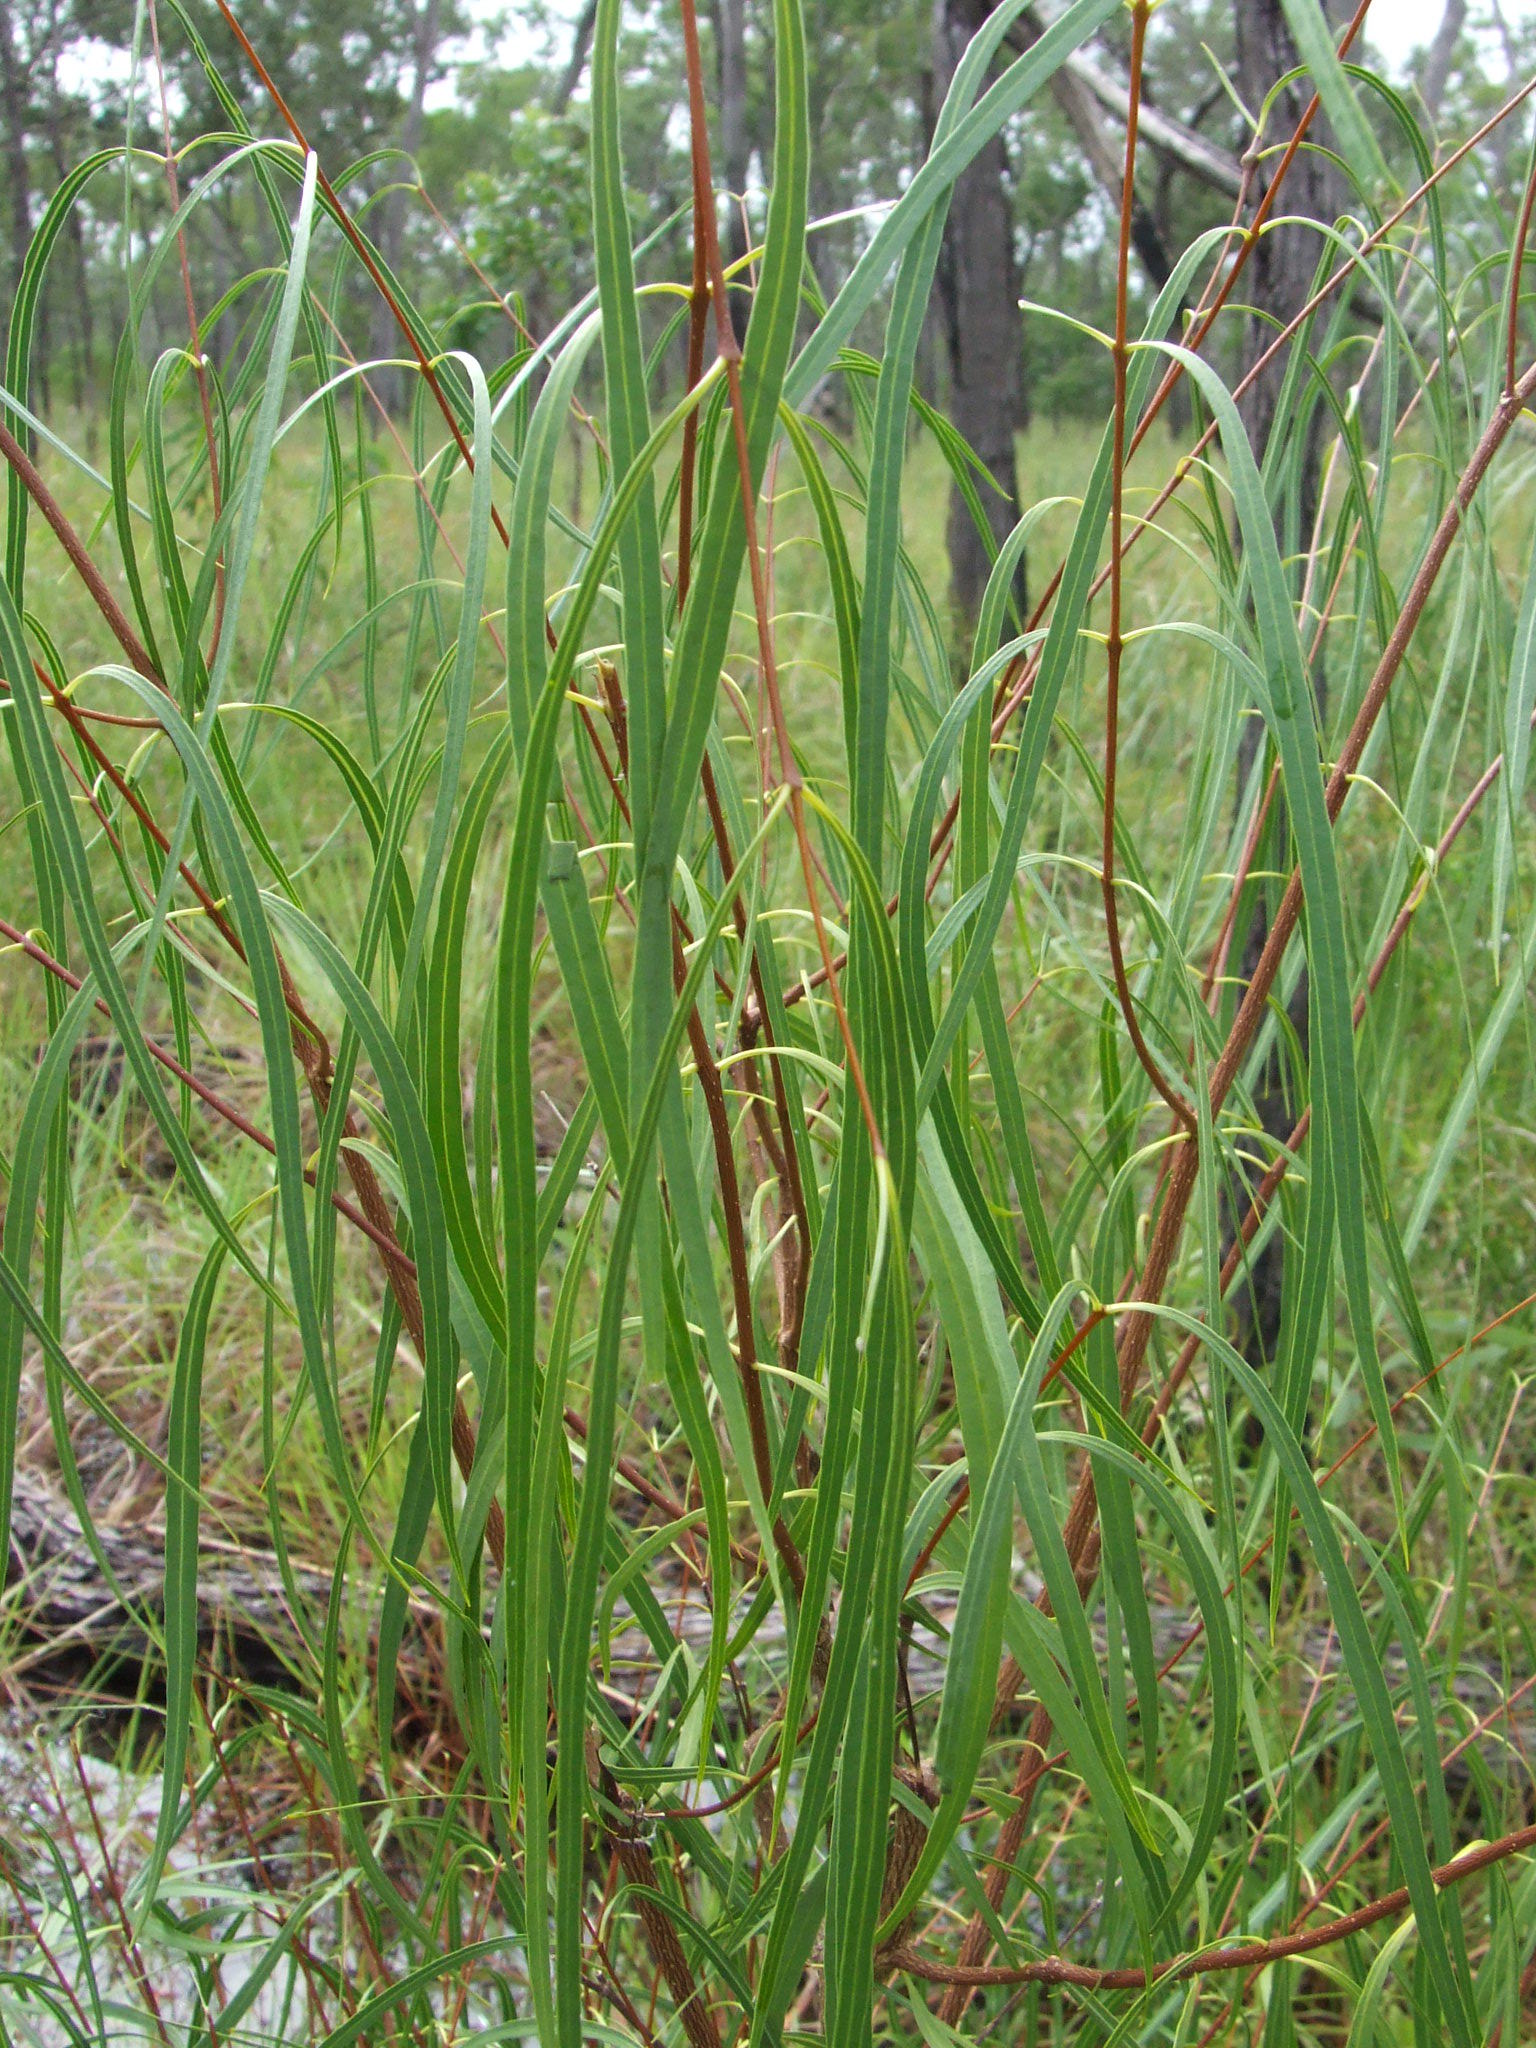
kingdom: Plantae
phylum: Tracheophyta
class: Magnoliopsida
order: Gentianales
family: Apocynaceae
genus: Wrightia
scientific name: Wrightia saligna
